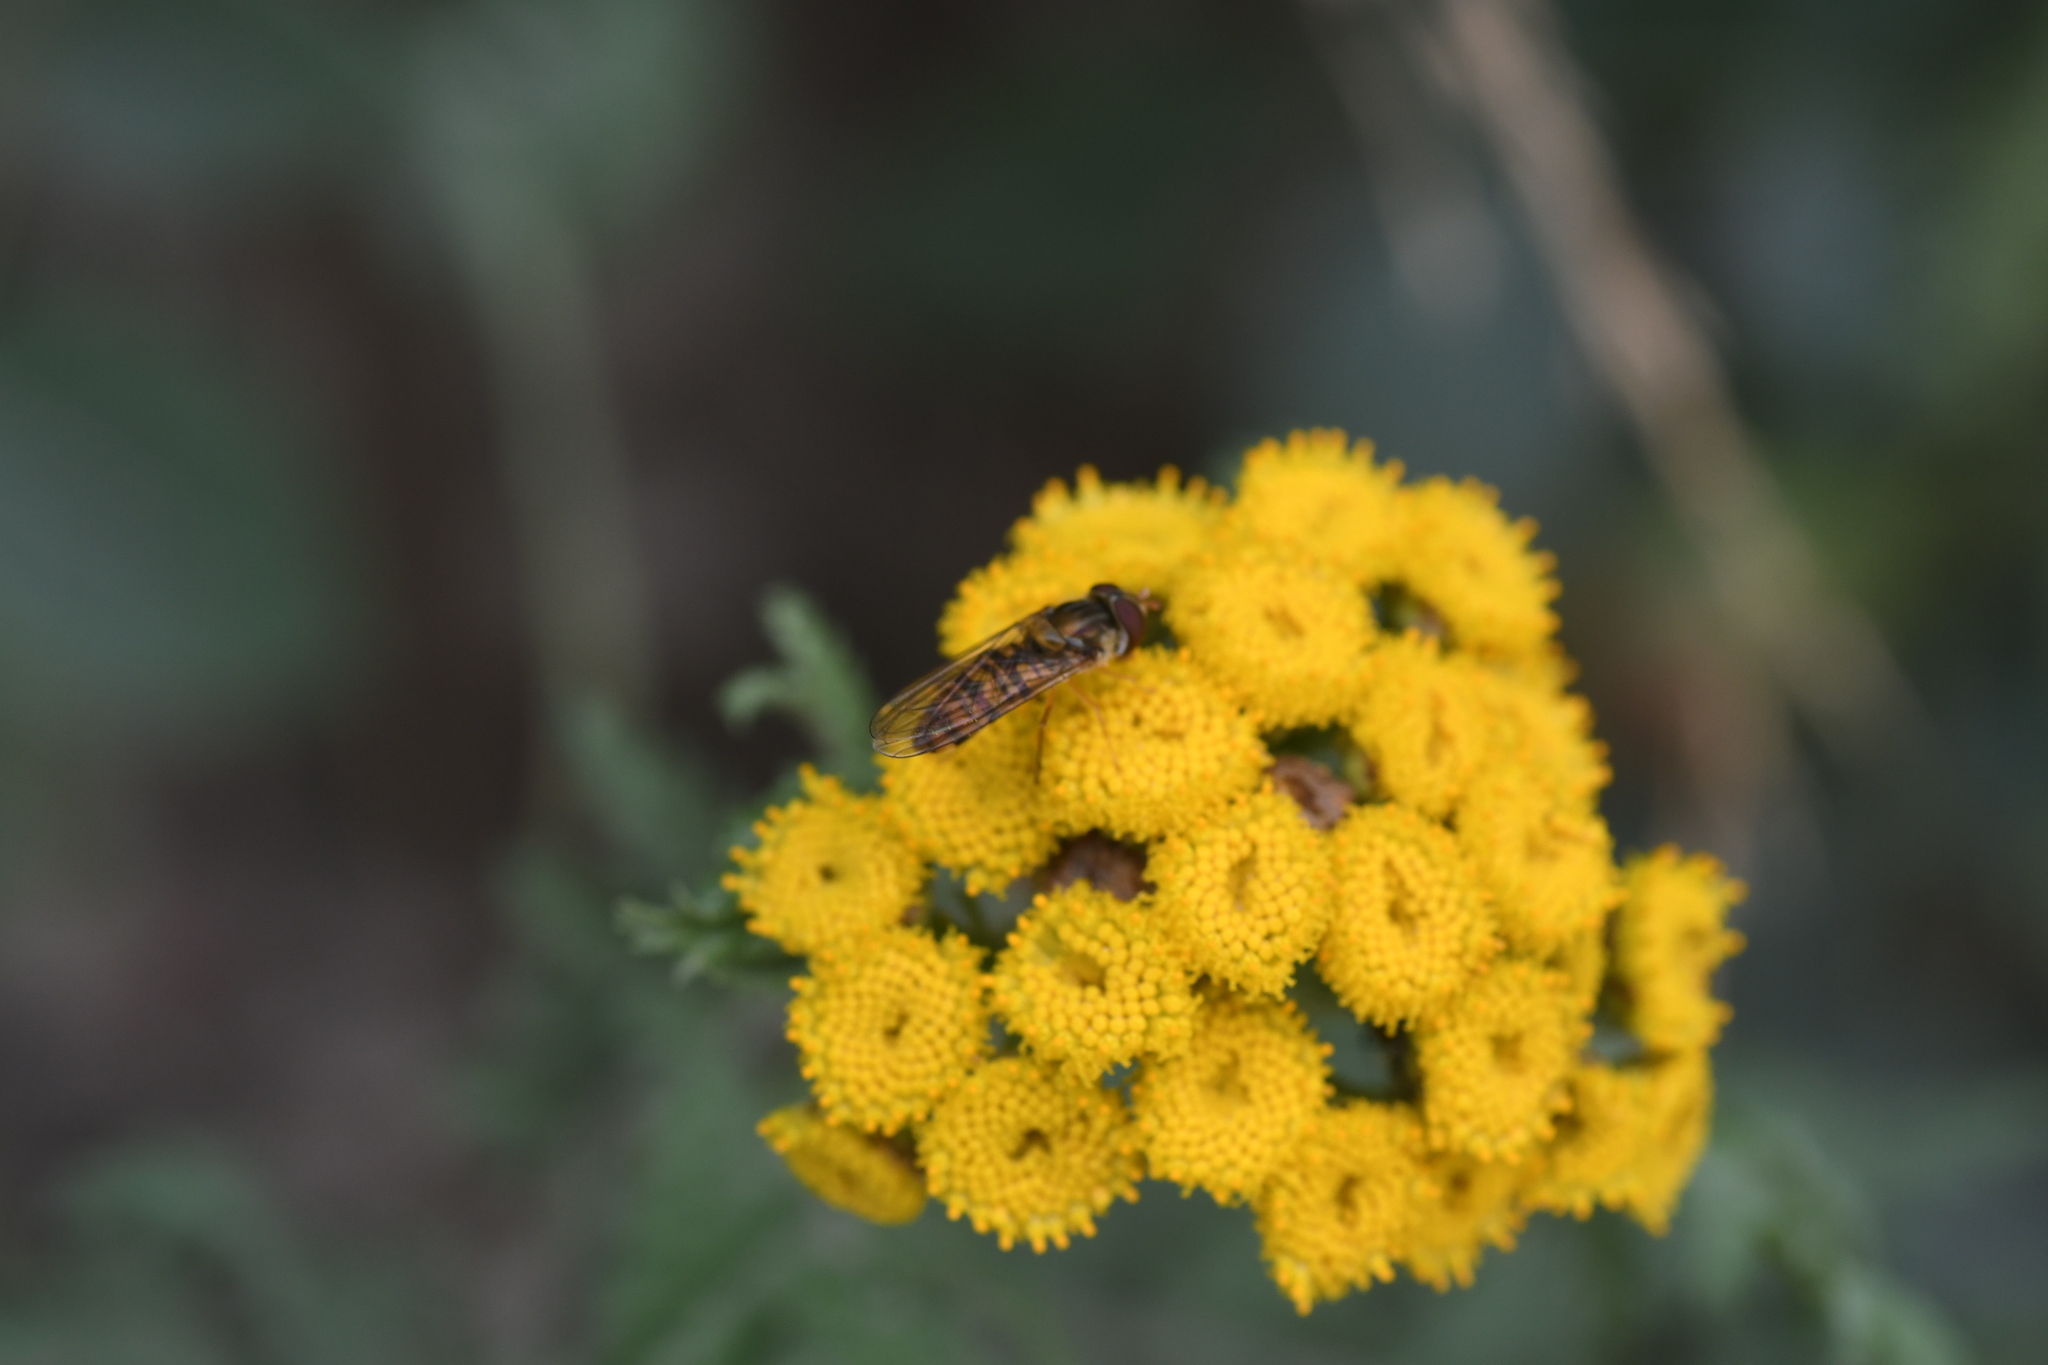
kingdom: Animalia
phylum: Arthropoda
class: Insecta
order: Diptera
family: Syrphidae
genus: Episyrphus
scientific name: Episyrphus balteatus
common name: Marmalade hoverfly
